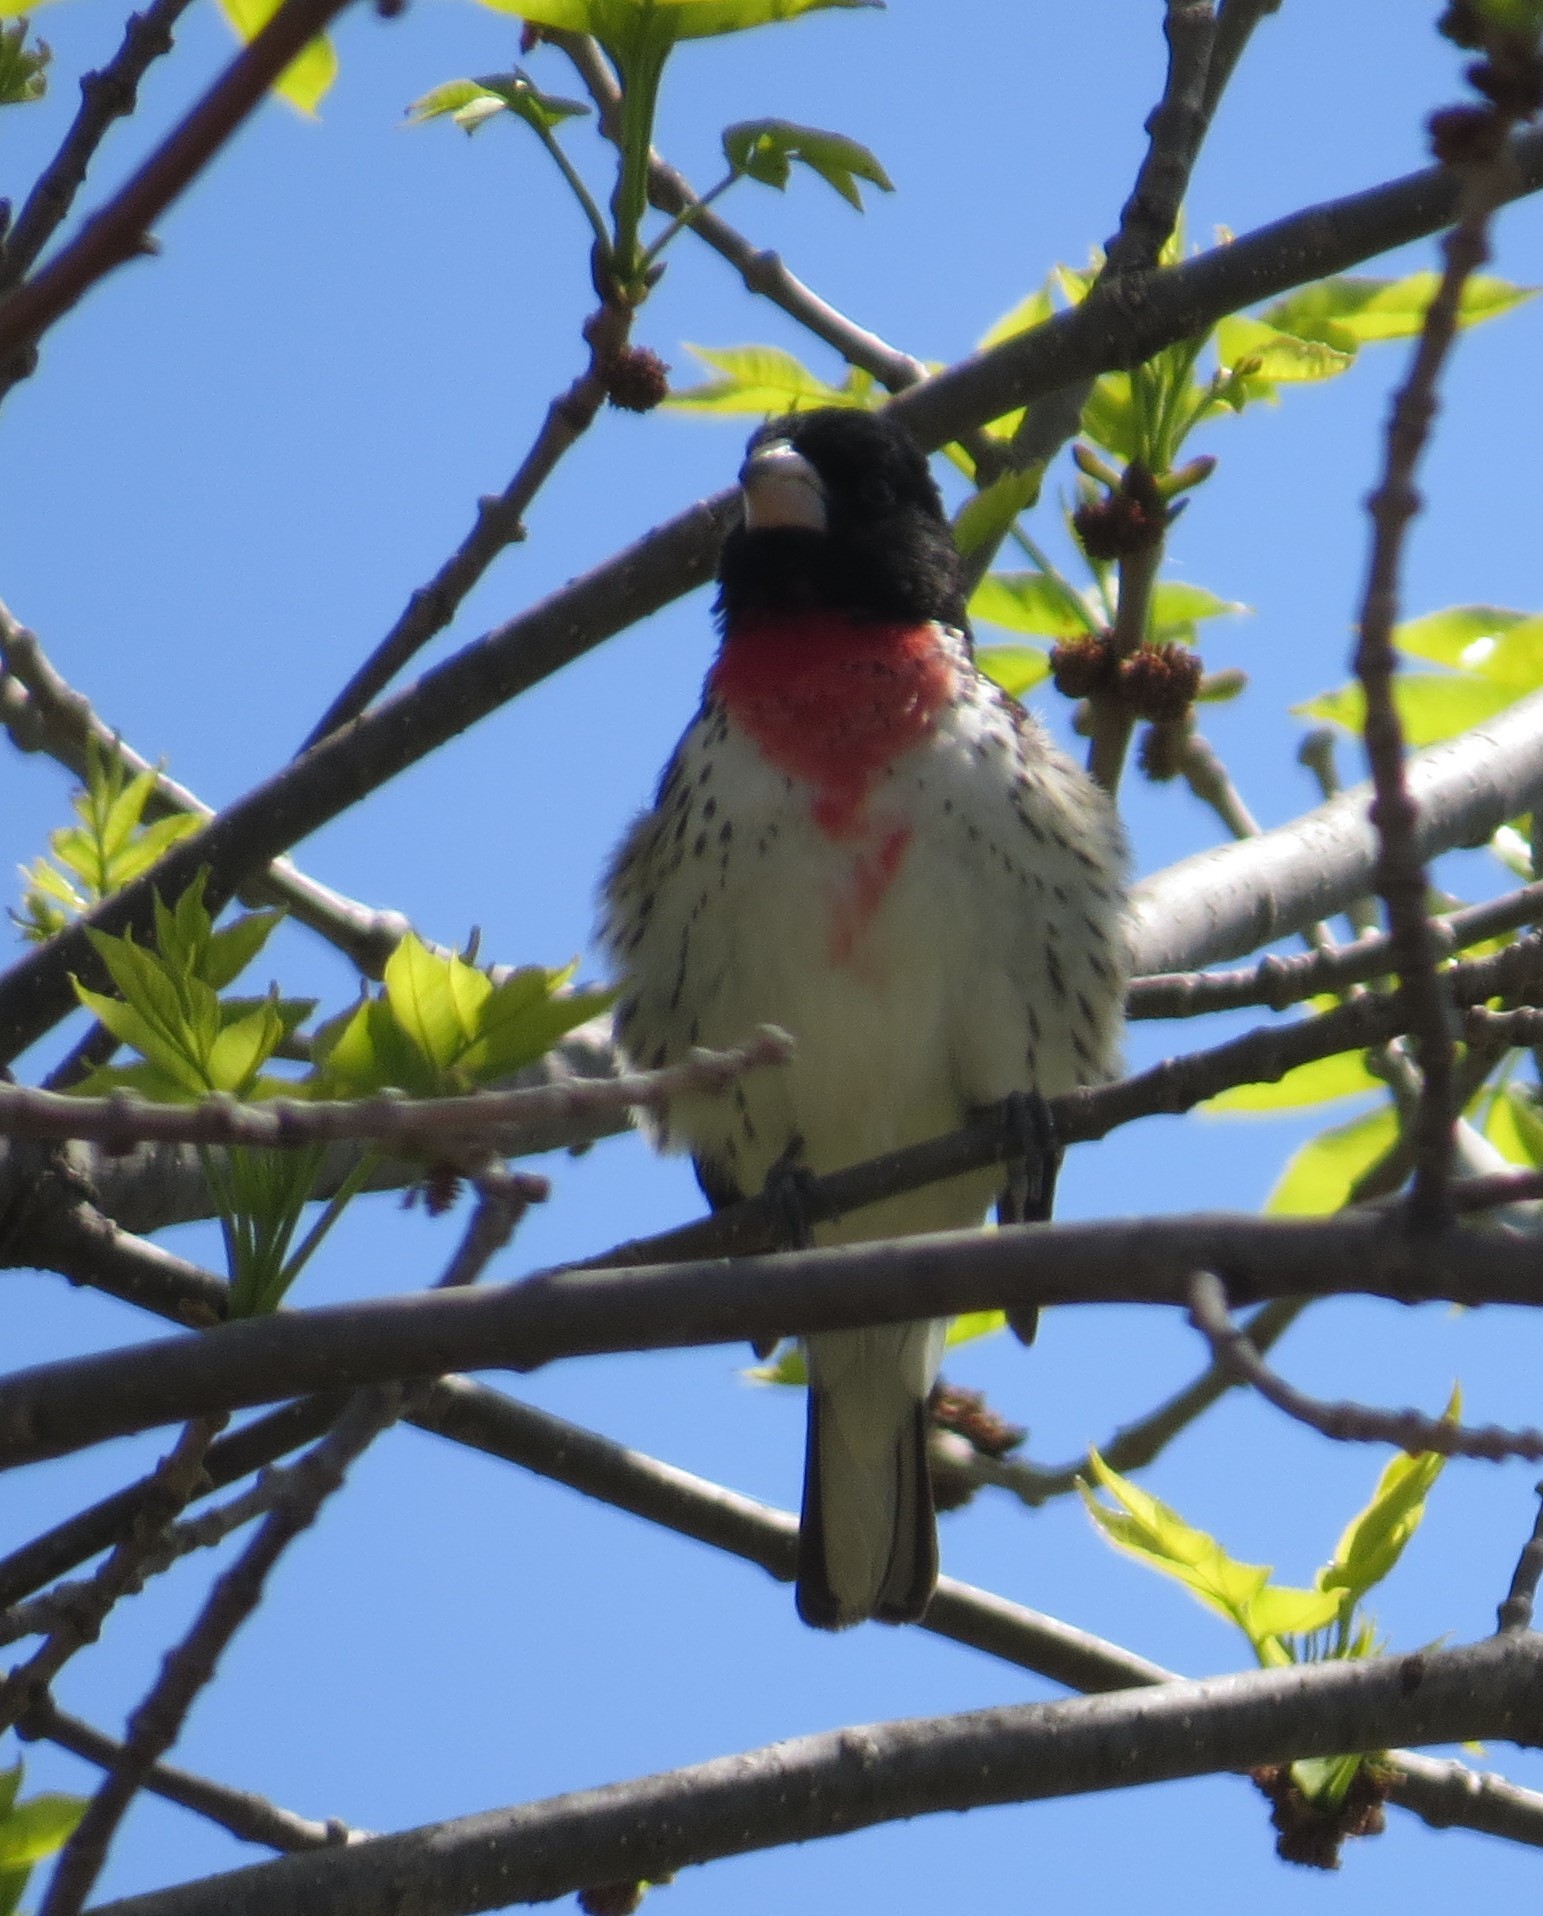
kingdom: Animalia
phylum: Chordata
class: Aves
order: Passeriformes
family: Cardinalidae
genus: Pheucticus
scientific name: Pheucticus ludovicianus
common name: Rose-breasted grosbeak
